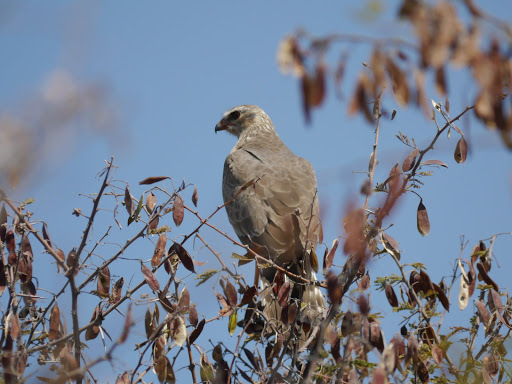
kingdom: Animalia
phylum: Chordata
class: Aves
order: Accipitriformes
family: Accipitridae
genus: Melierax
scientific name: Melierax canorus
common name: Pale chanting-goshawk
